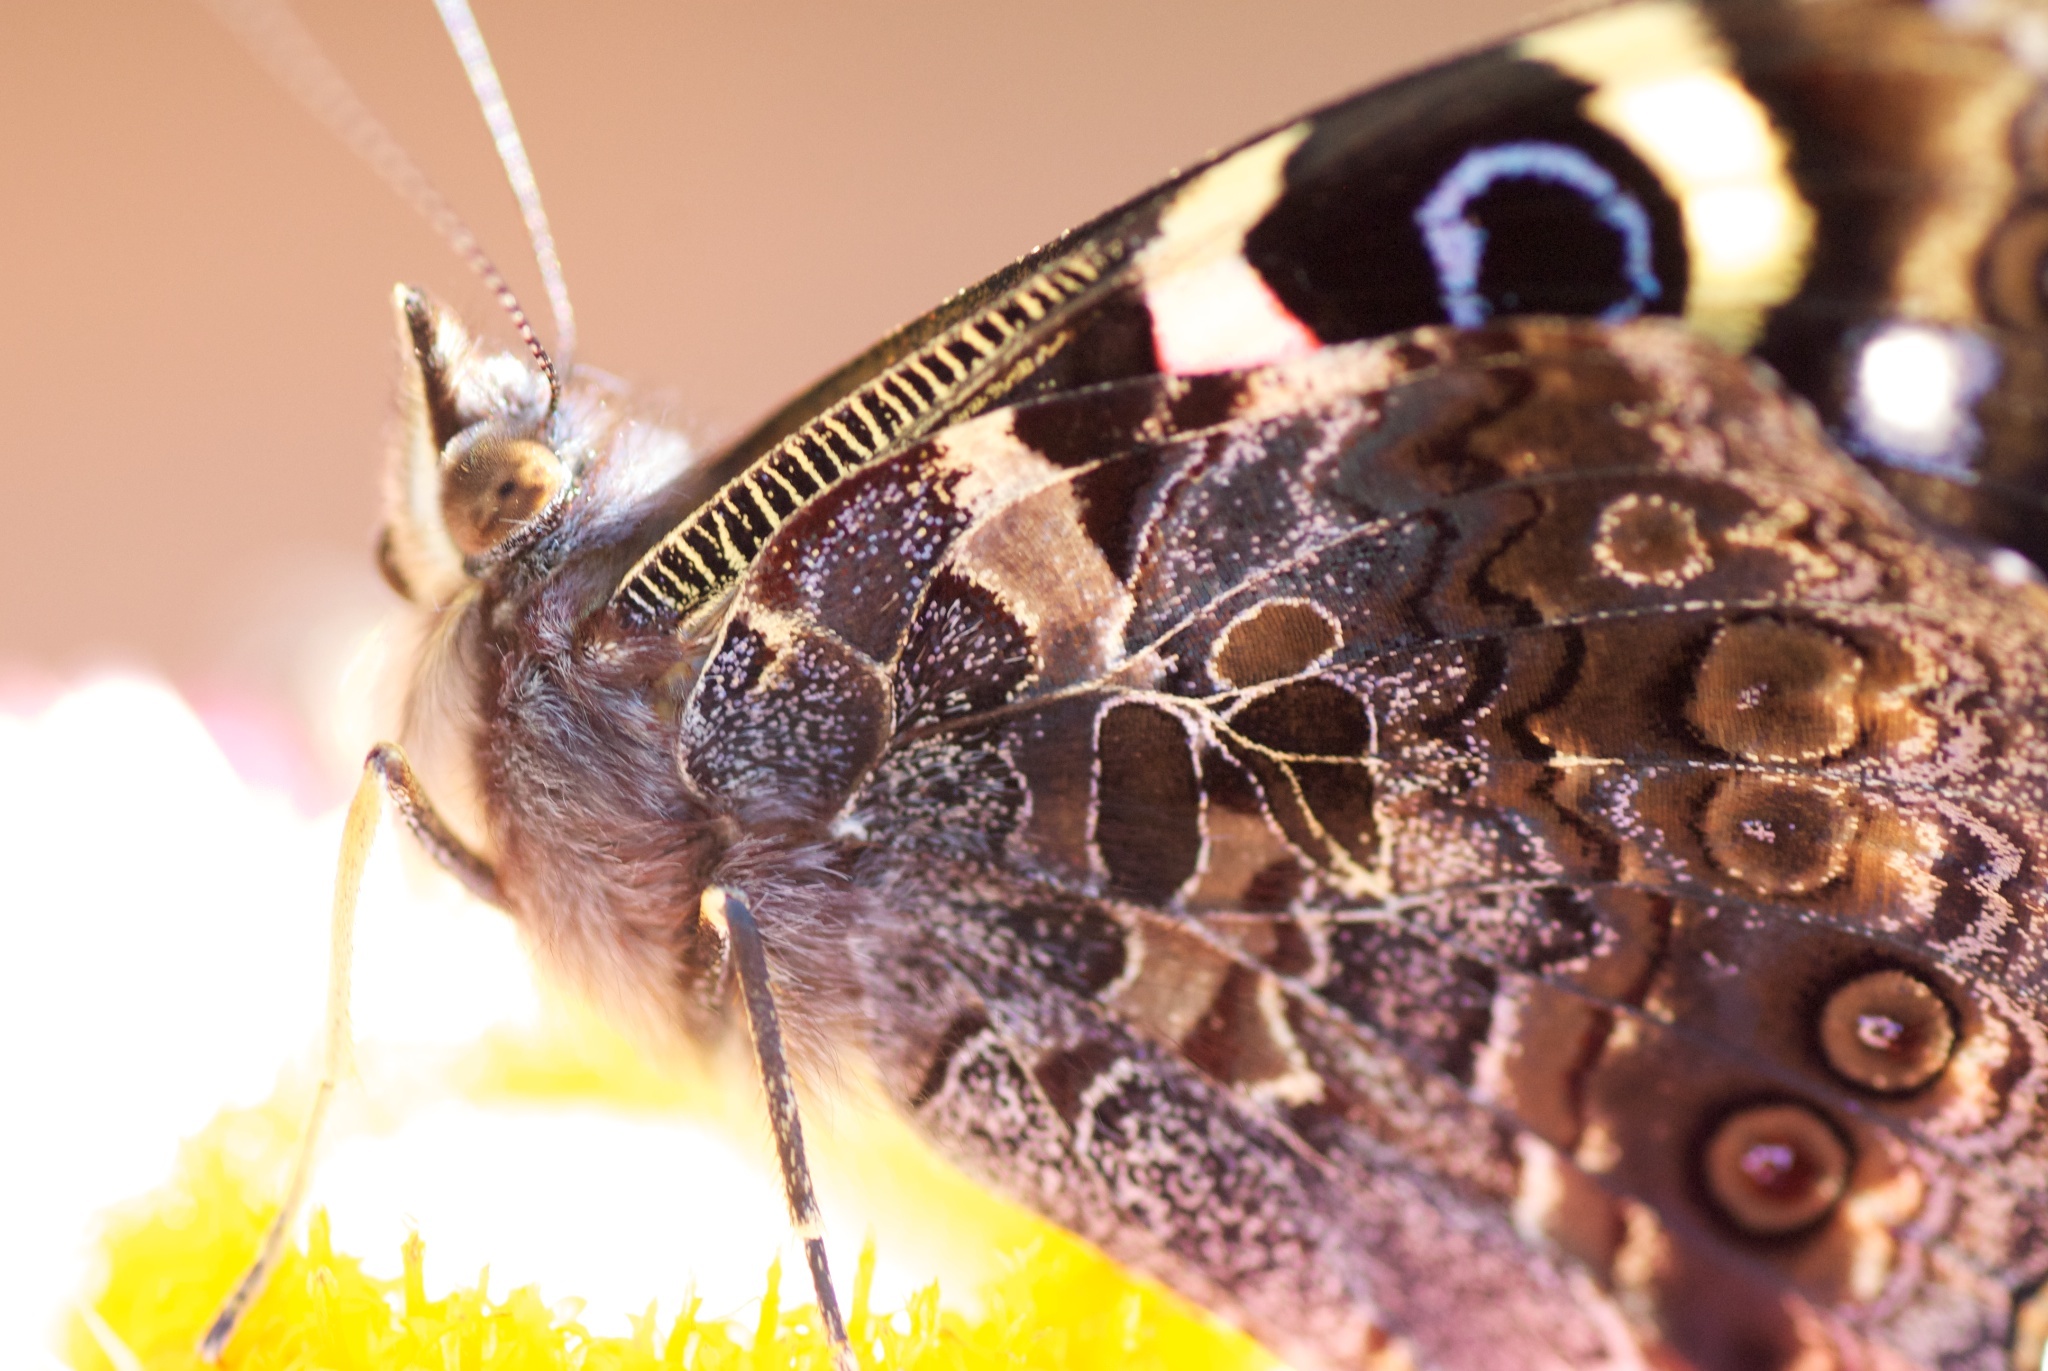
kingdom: Animalia
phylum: Arthropoda
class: Insecta
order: Lepidoptera
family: Nymphalidae
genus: Vanessa
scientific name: Vanessa gonerilla
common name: New zealand red admiral
